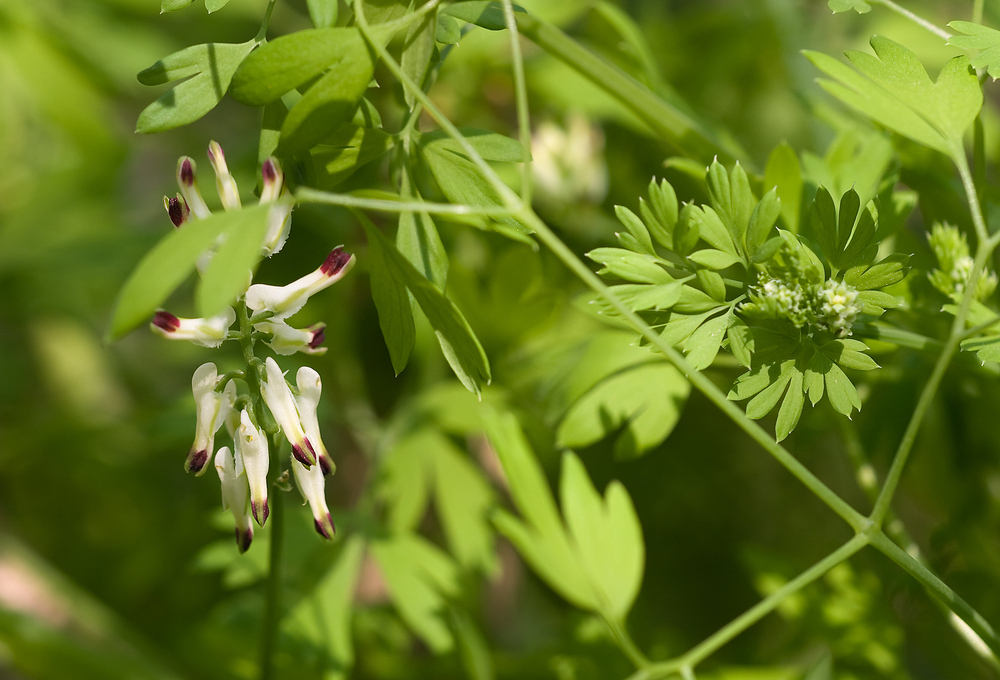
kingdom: Plantae
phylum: Tracheophyta
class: Magnoliopsida
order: Ranunculales
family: Papaveraceae
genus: Fumaria
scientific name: Fumaria capreolata
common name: White ramping-fumitory
